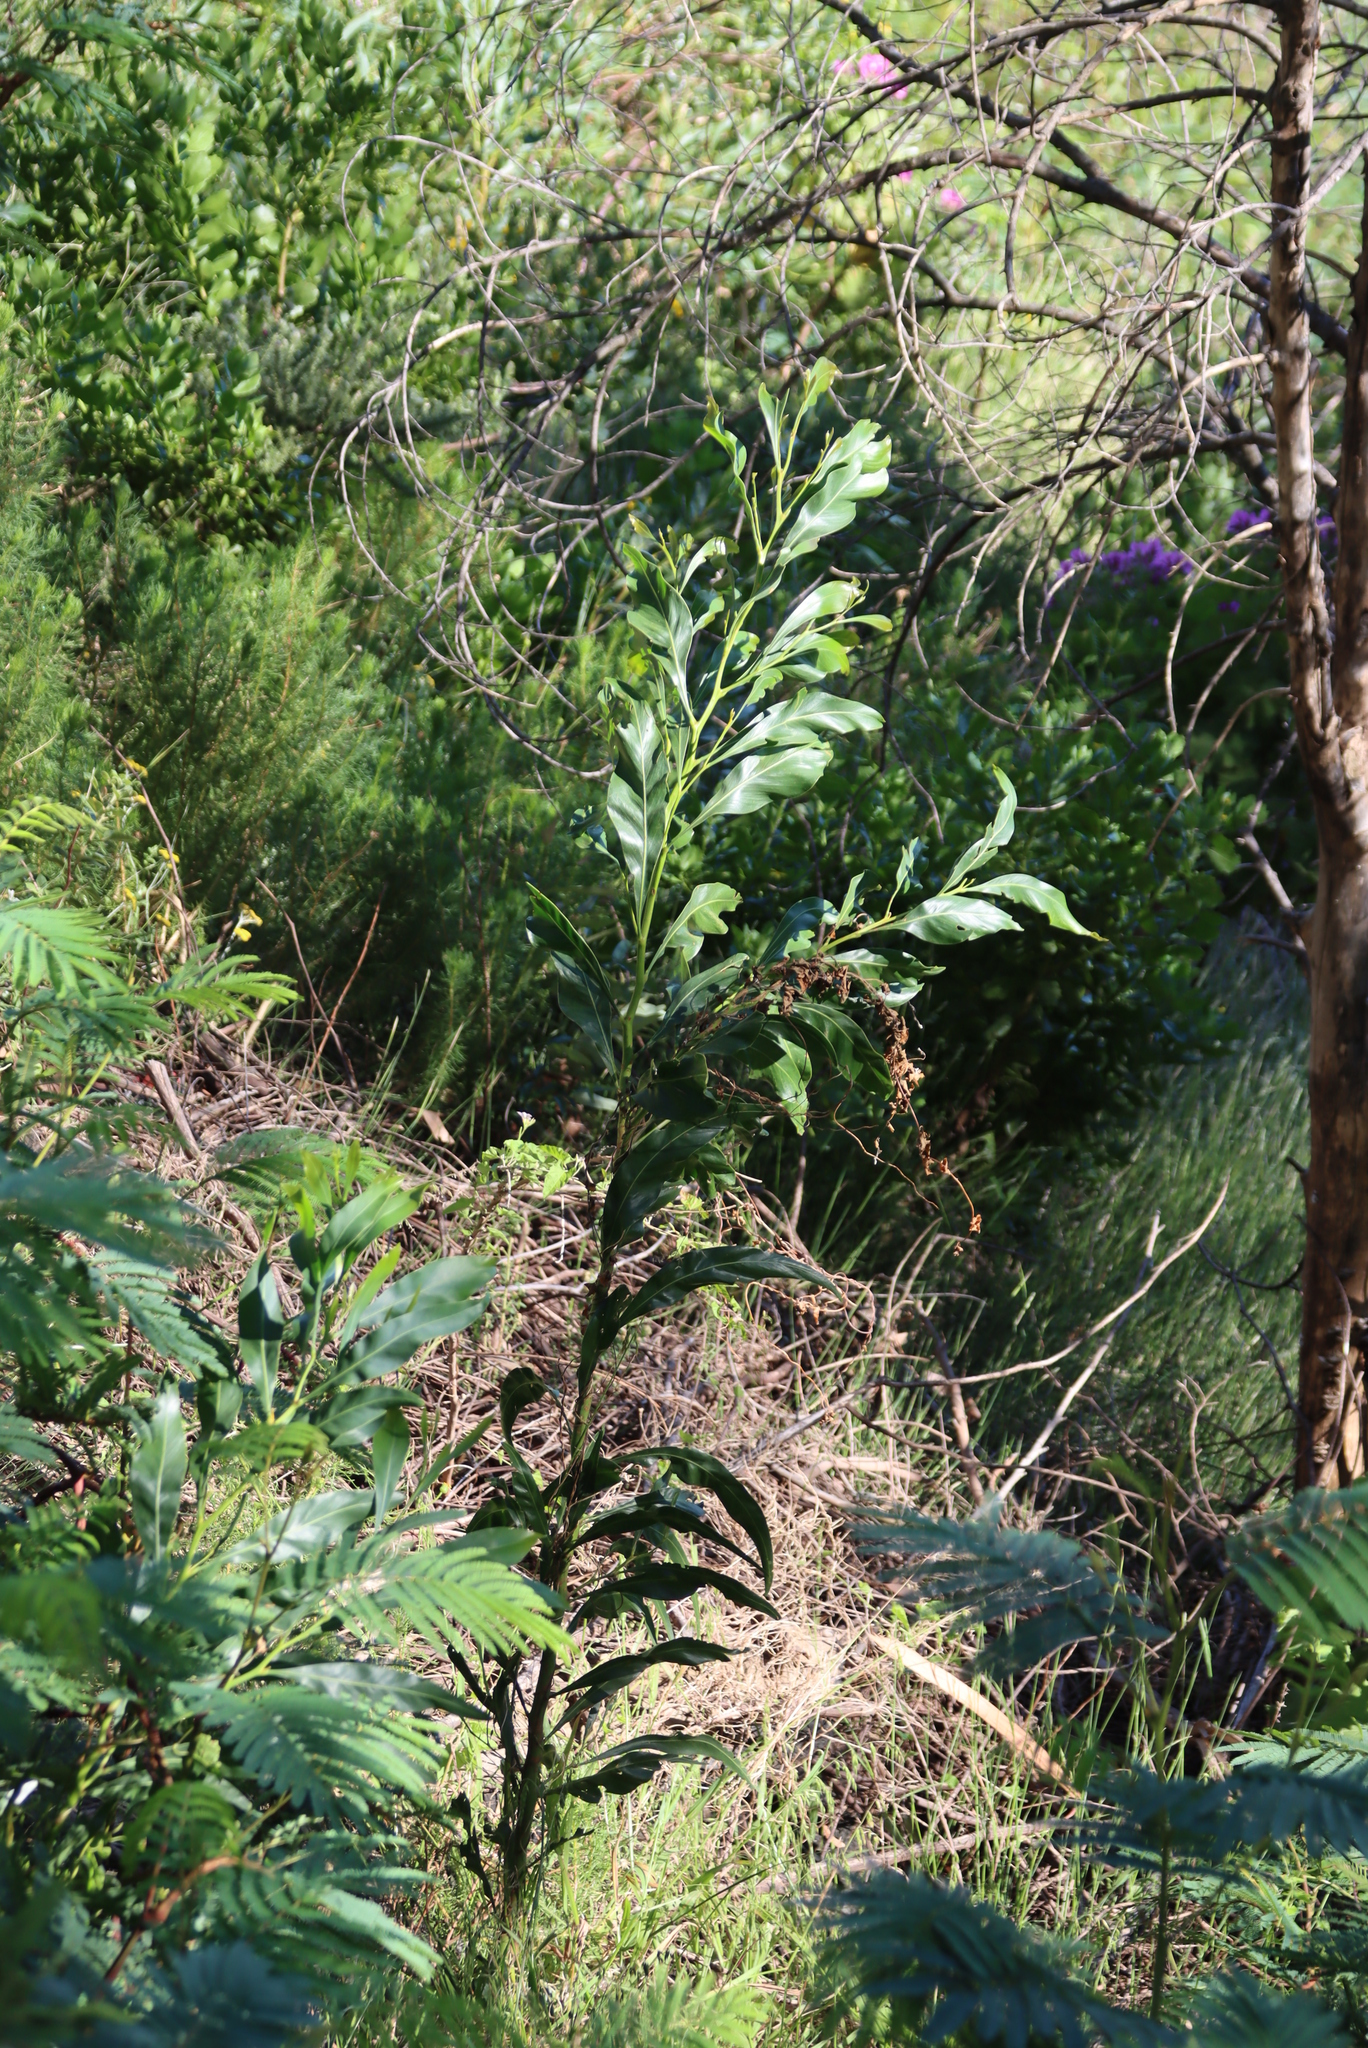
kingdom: Plantae
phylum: Tracheophyta
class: Magnoliopsida
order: Fabales
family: Fabaceae
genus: Acacia
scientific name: Acacia saligna
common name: Orange wattle
